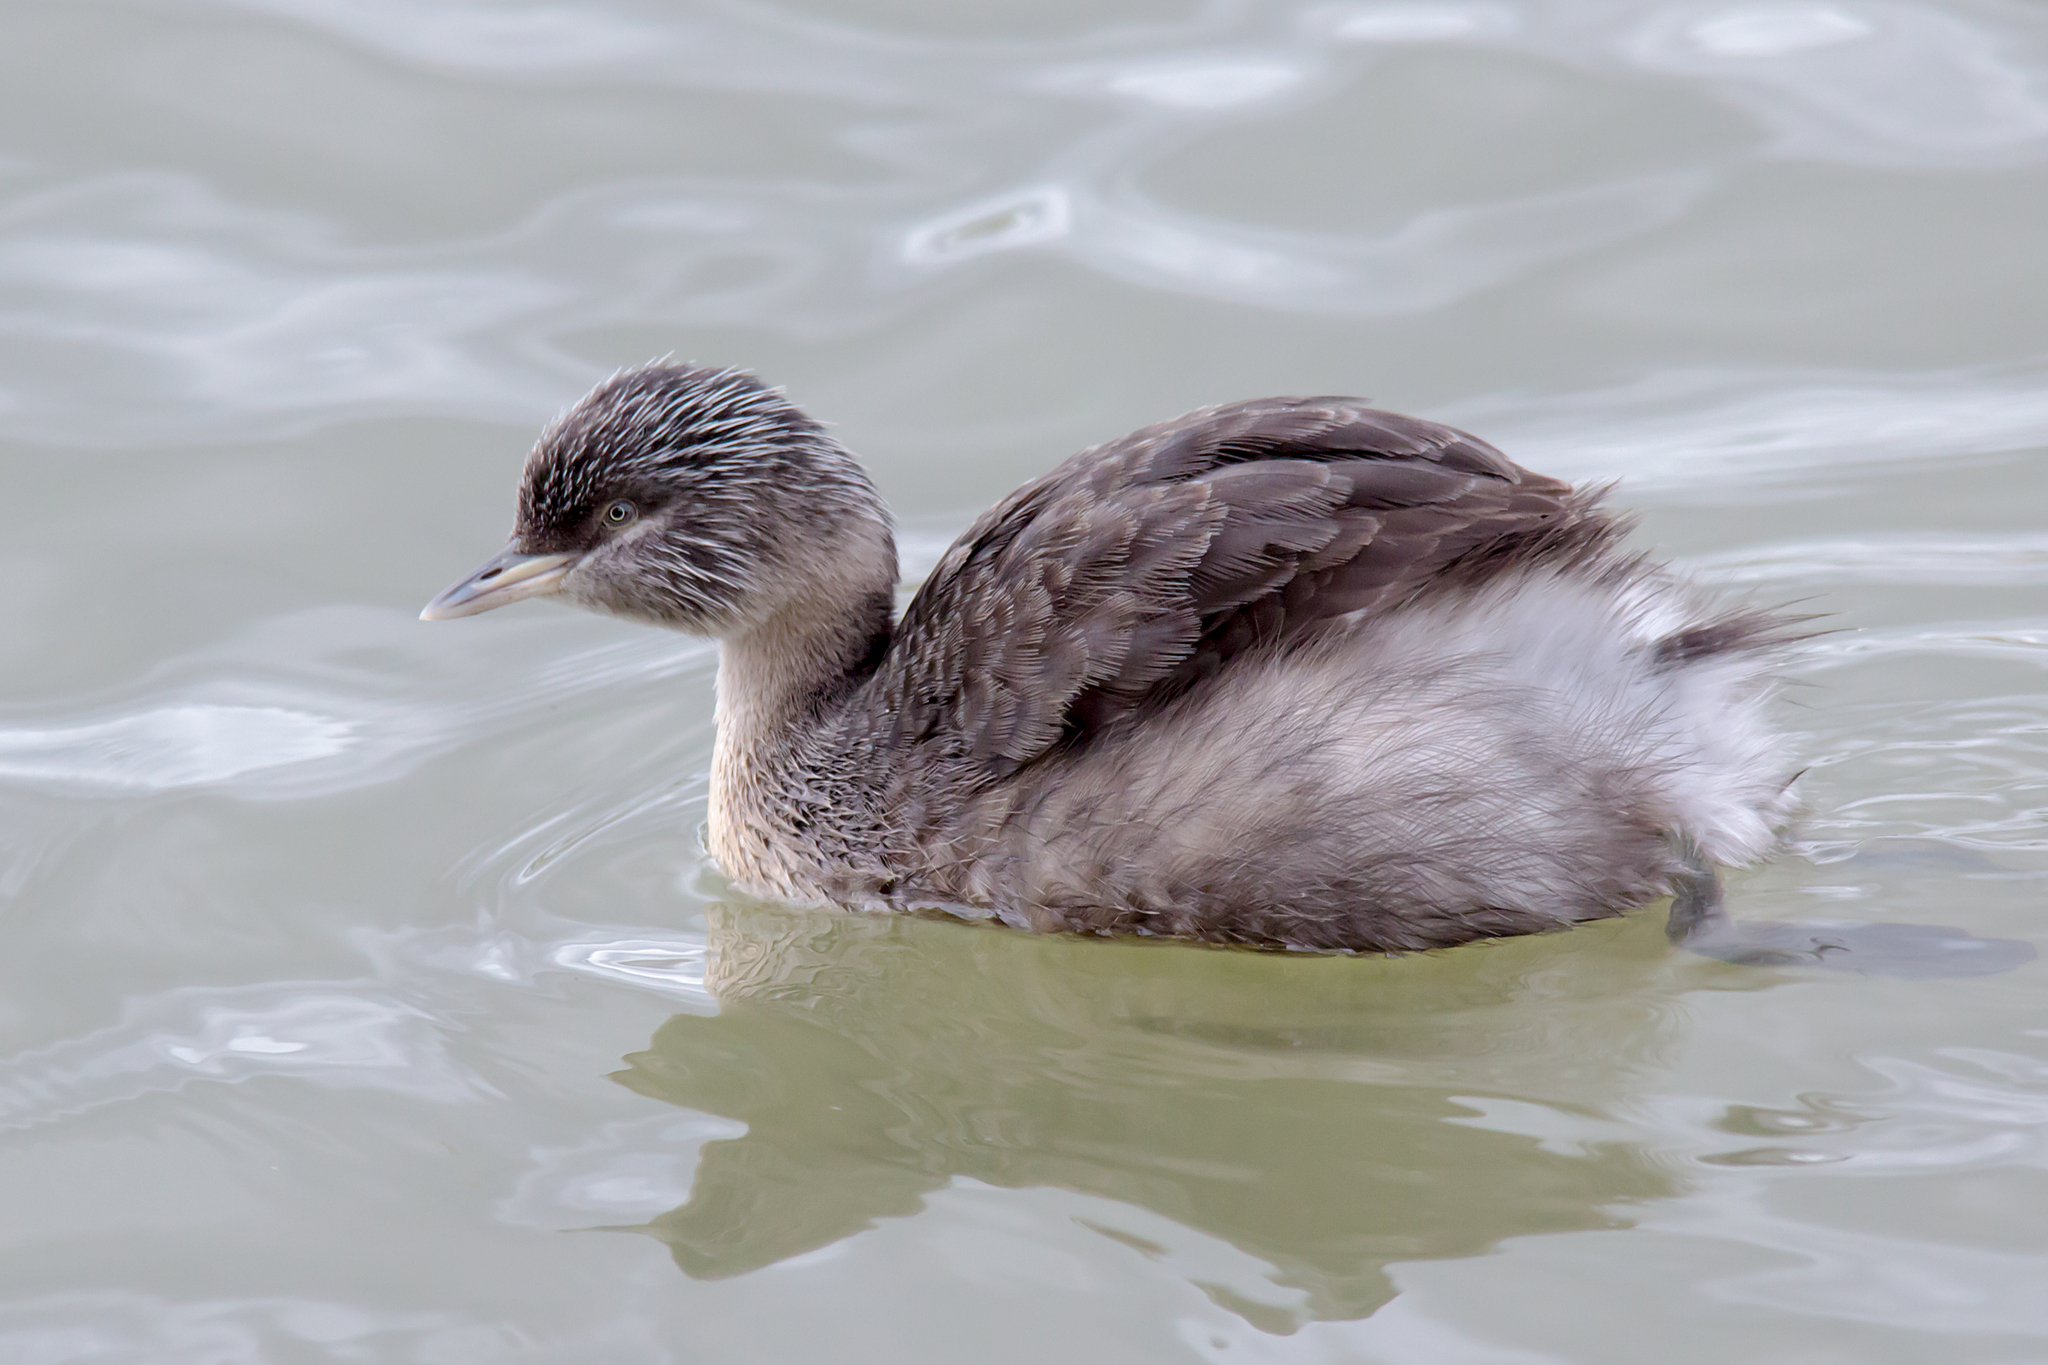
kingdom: Animalia
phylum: Chordata
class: Aves
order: Podicipediformes
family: Podicipedidae
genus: Poliocephalus
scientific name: Poliocephalus poliocephalus
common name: Hoary-headed grebe
